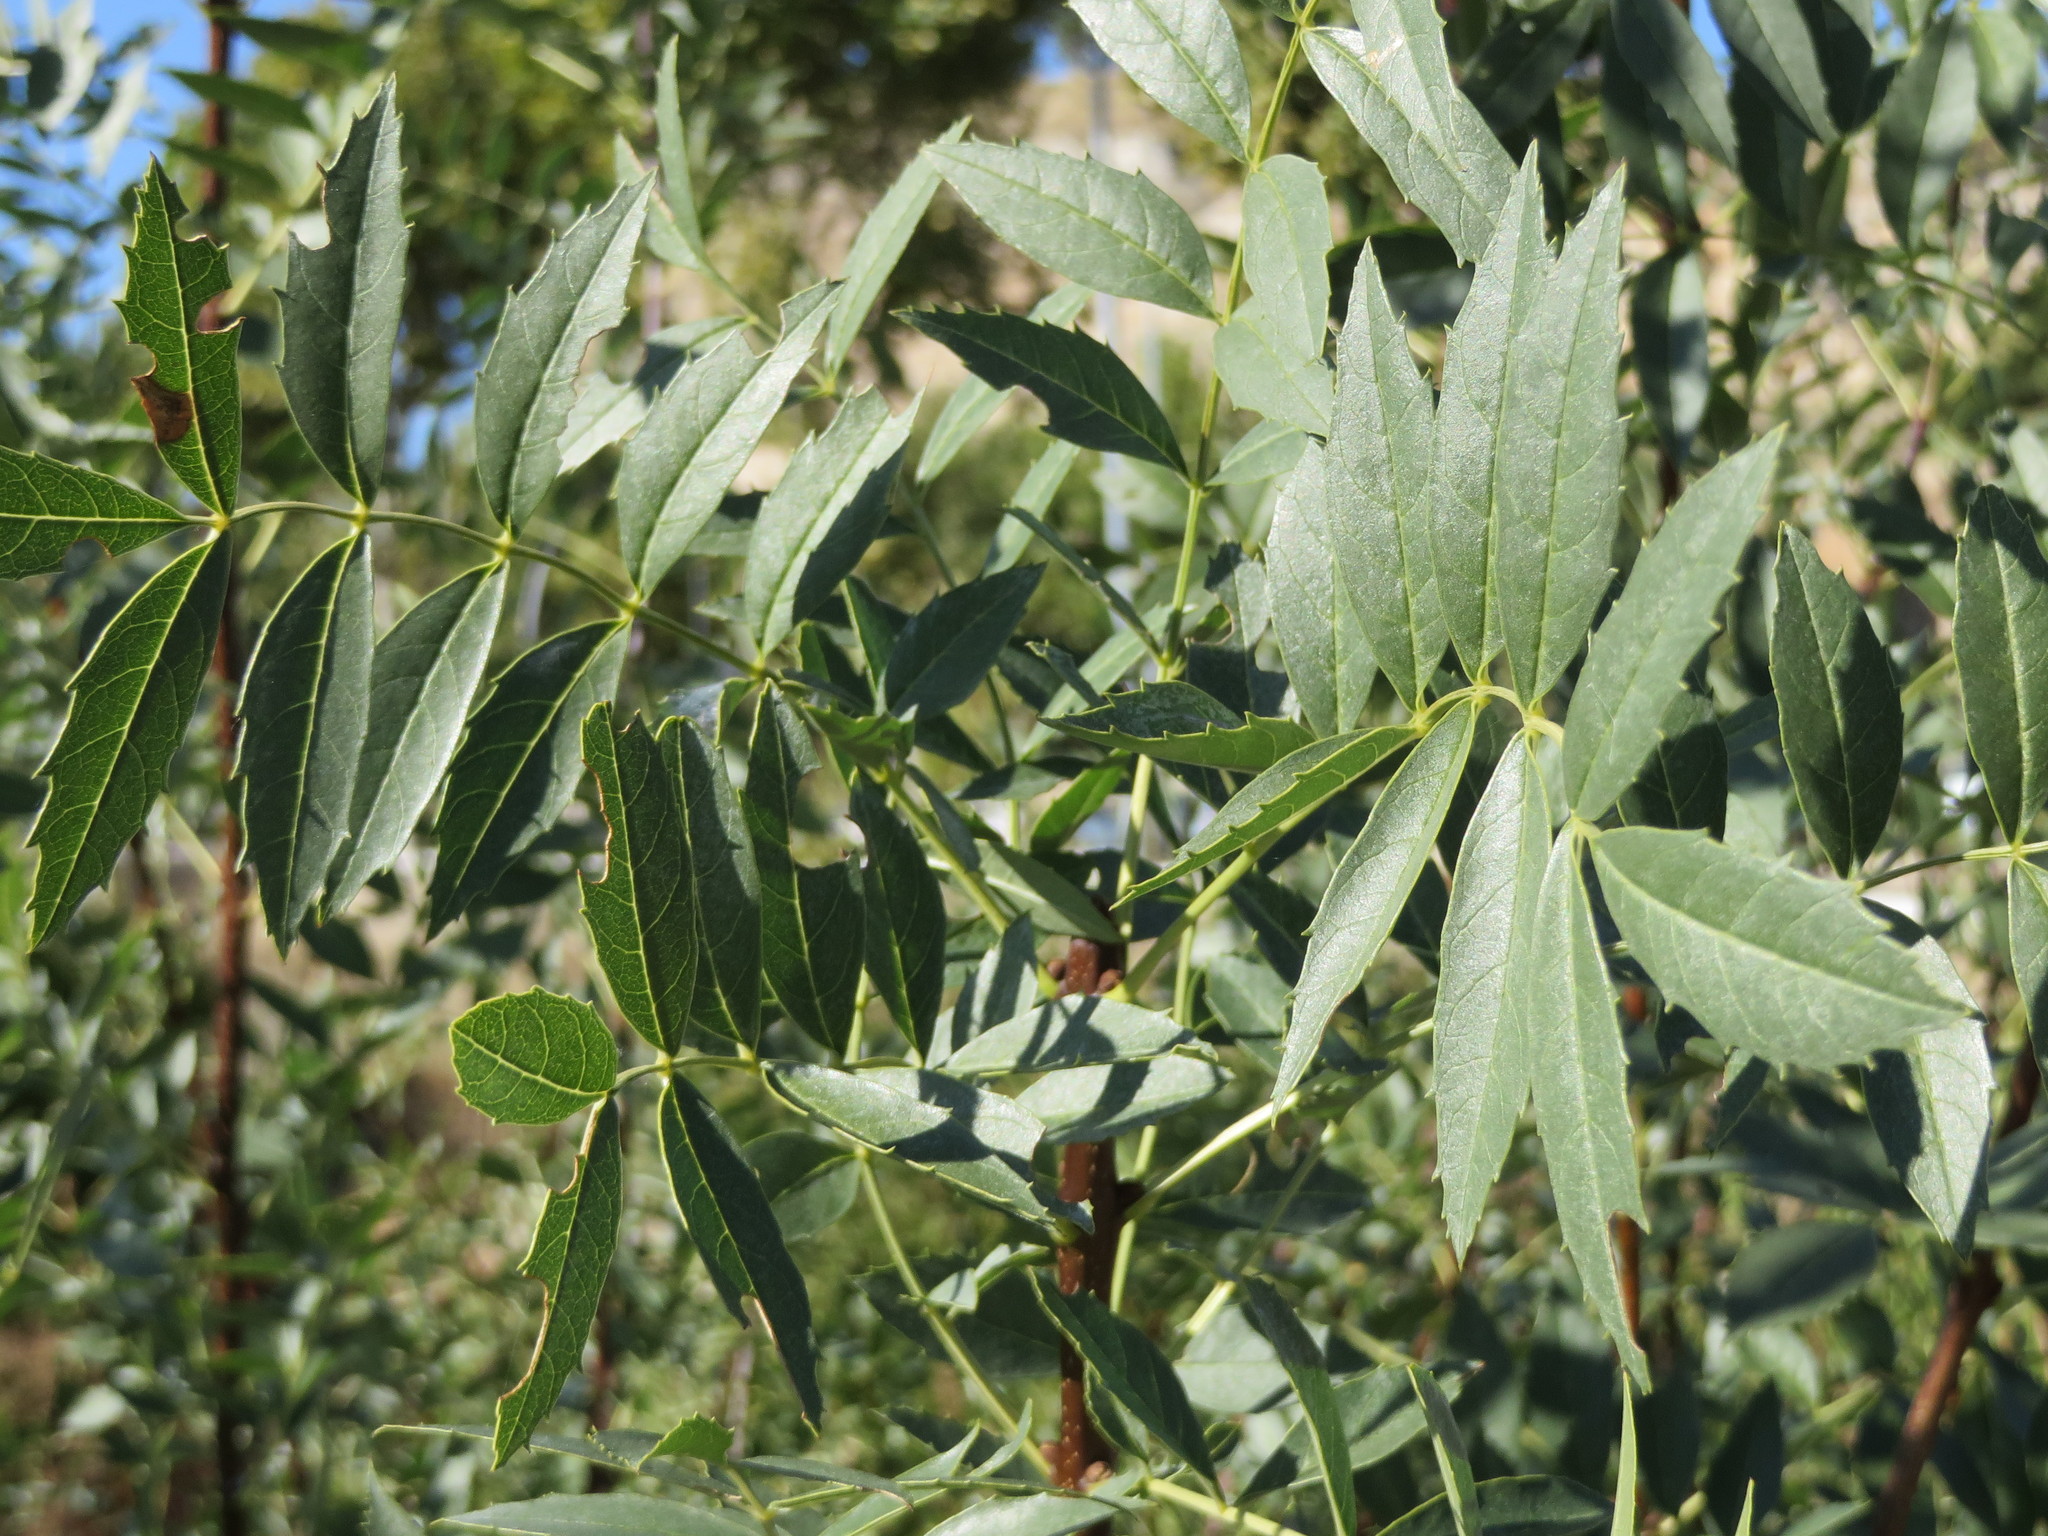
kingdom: Plantae
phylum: Tracheophyta
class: Magnoliopsida
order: Lamiales
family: Oleaceae
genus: Fraxinus
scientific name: Fraxinus angustifolia
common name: Narrow-leafed ash
